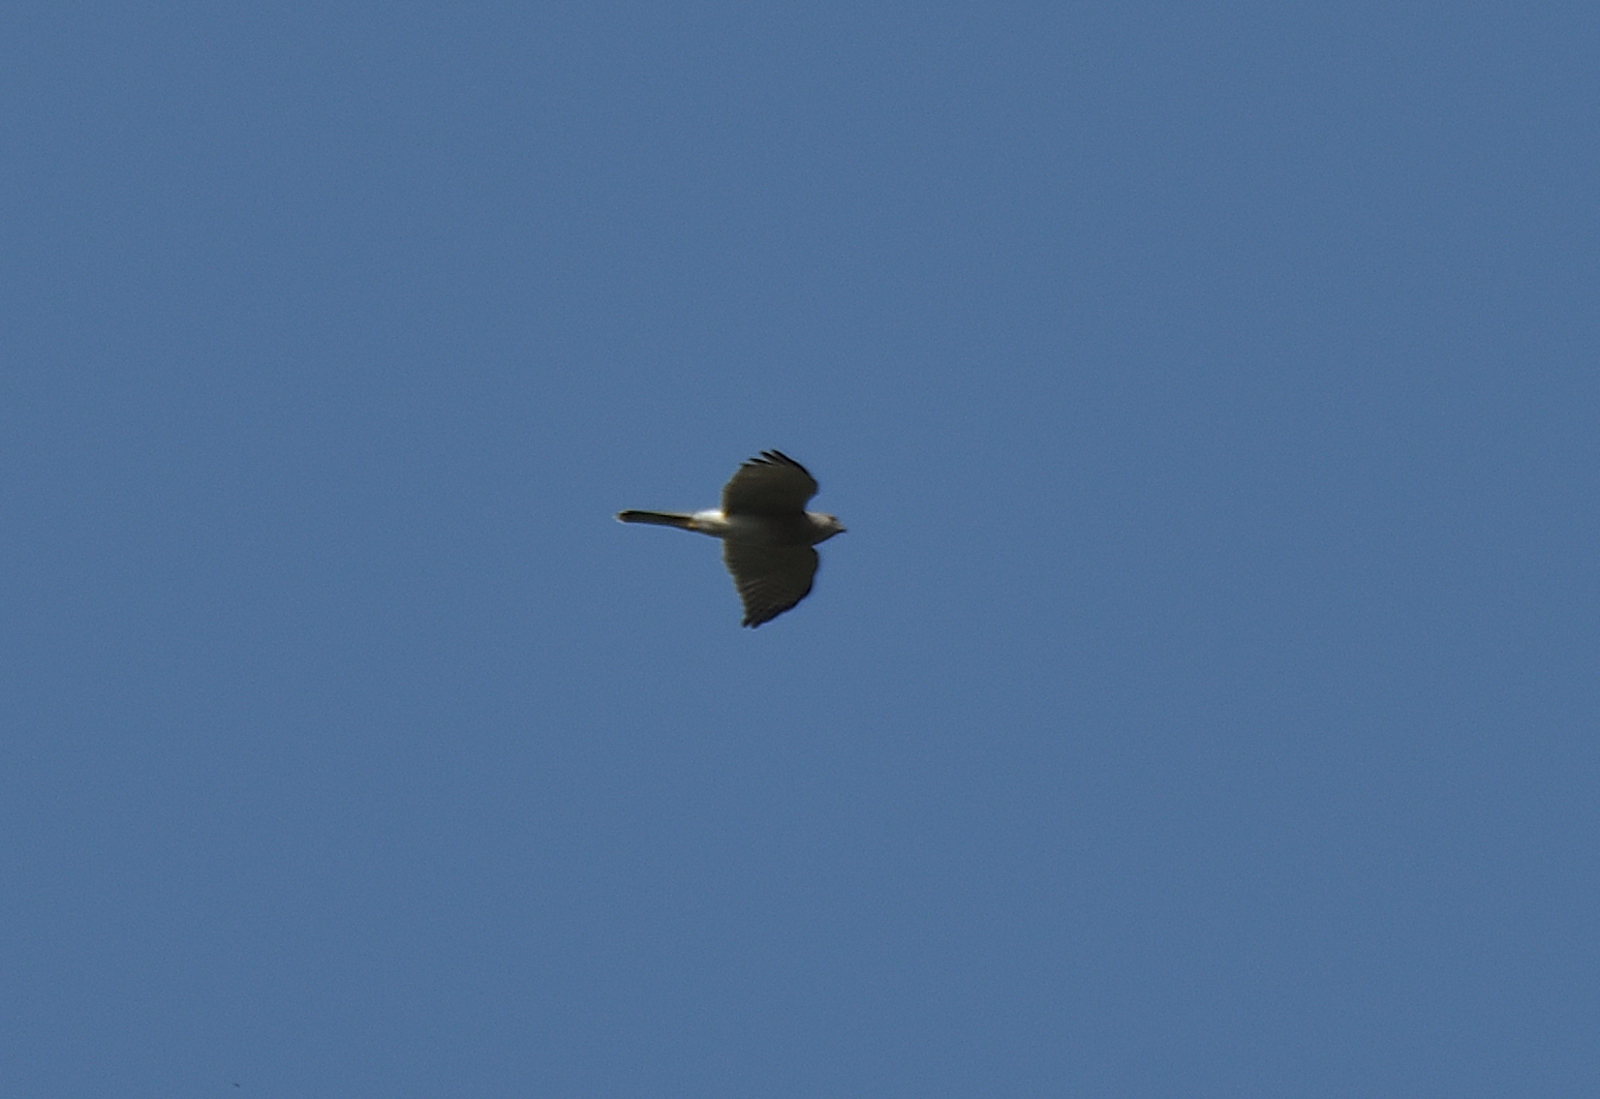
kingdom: Animalia
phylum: Chordata
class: Aves
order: Accipitriformes
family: Accipitridae
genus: Accipiter
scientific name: Accipiter badius
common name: Shikra
